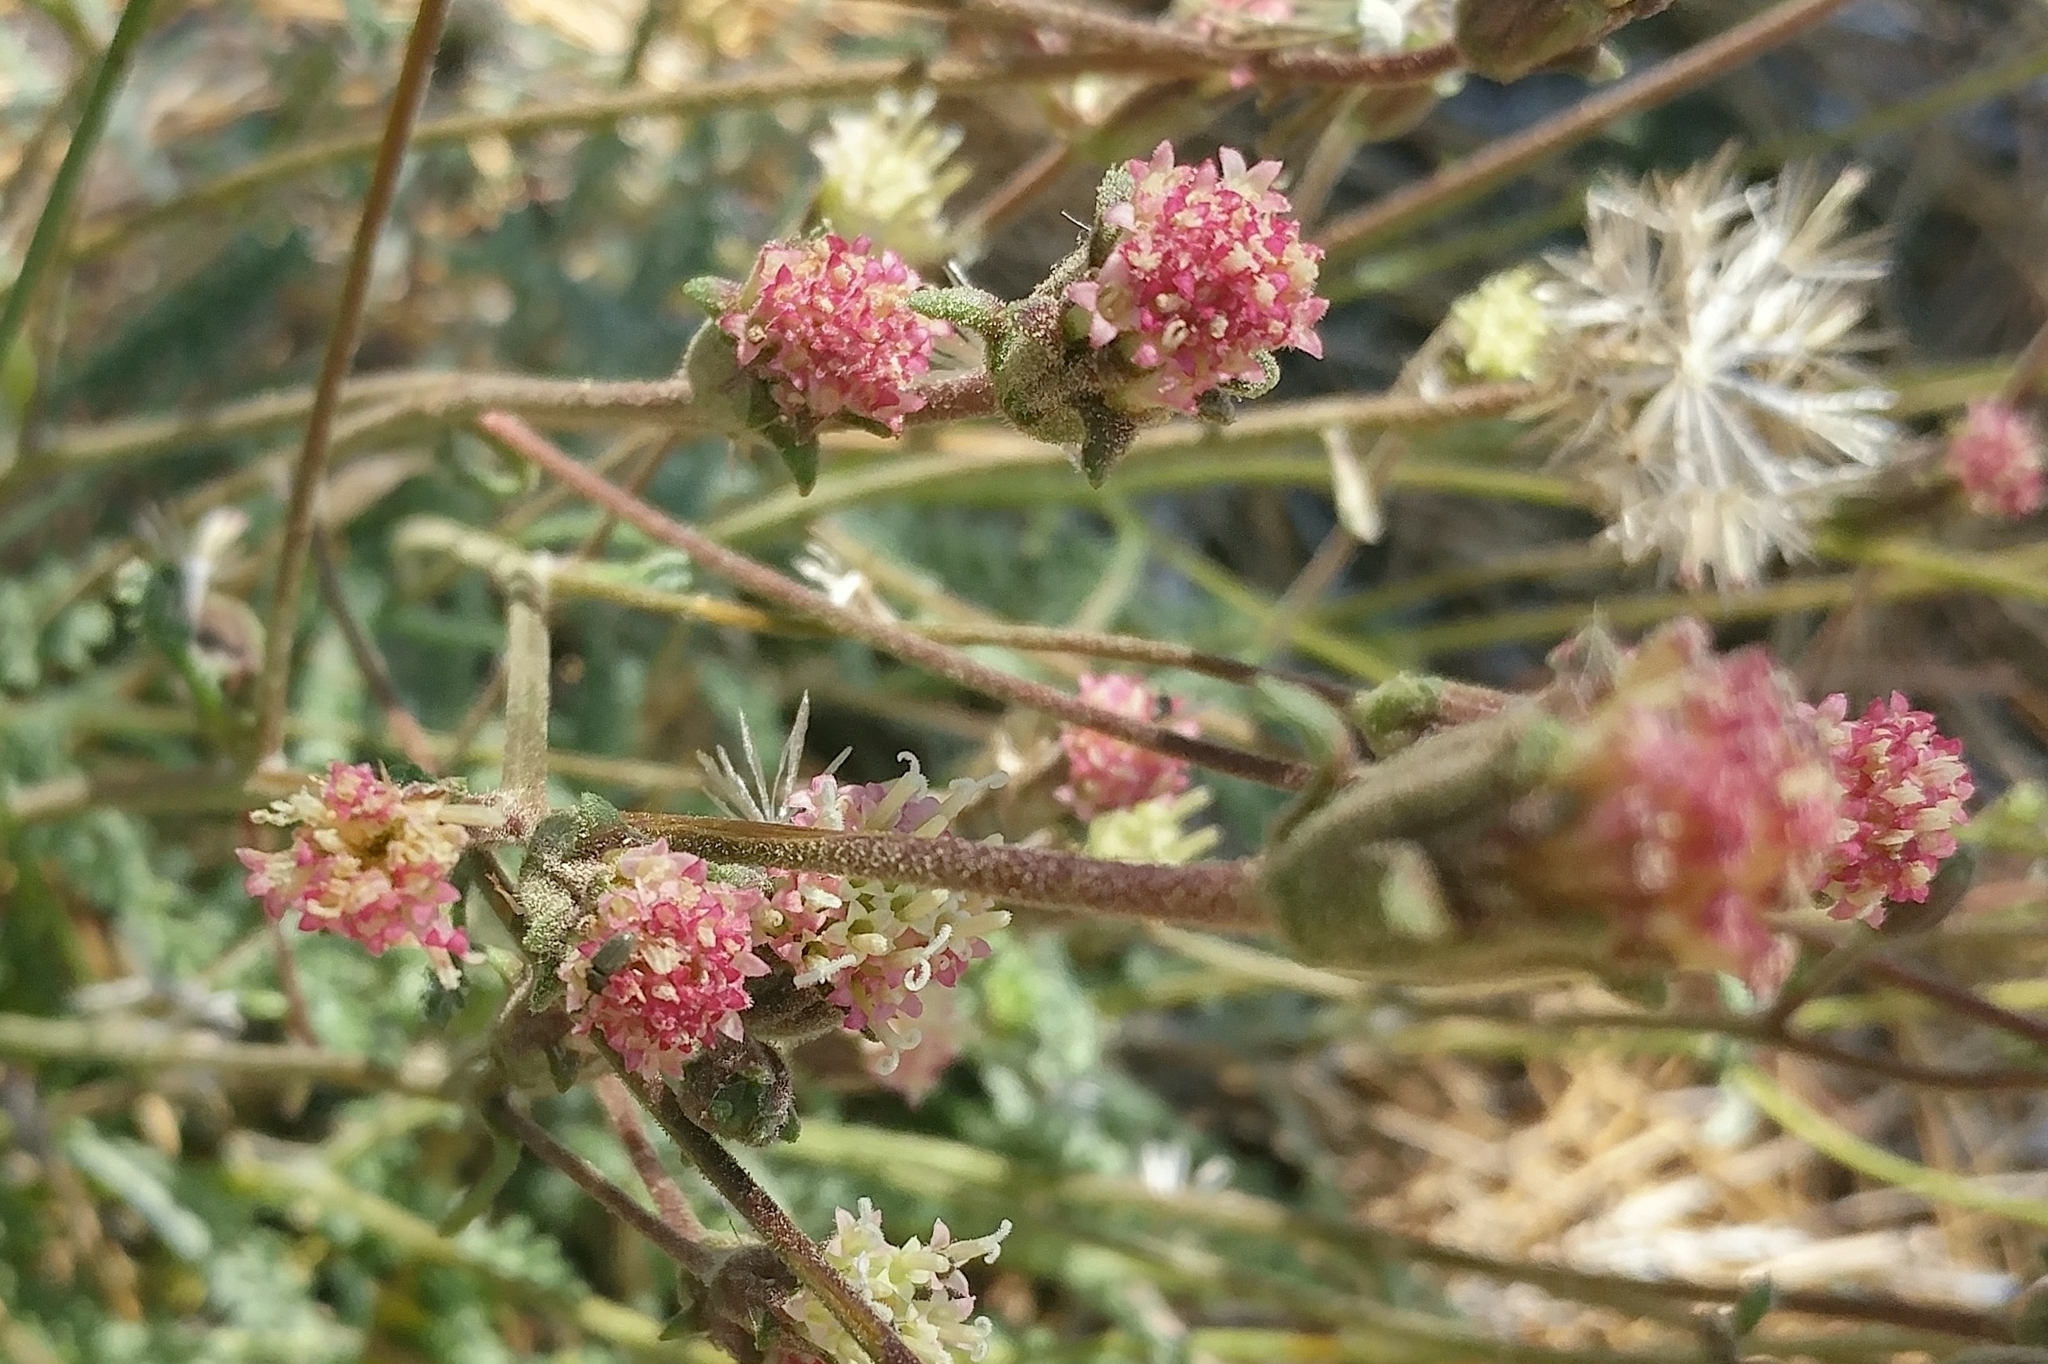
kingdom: Plantae
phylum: Tracheophyta
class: Magnoliopsida
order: Asterales
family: Asteraceae
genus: Chaenactis
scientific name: Chaenactis santolinoides
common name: Santolina pincushion
